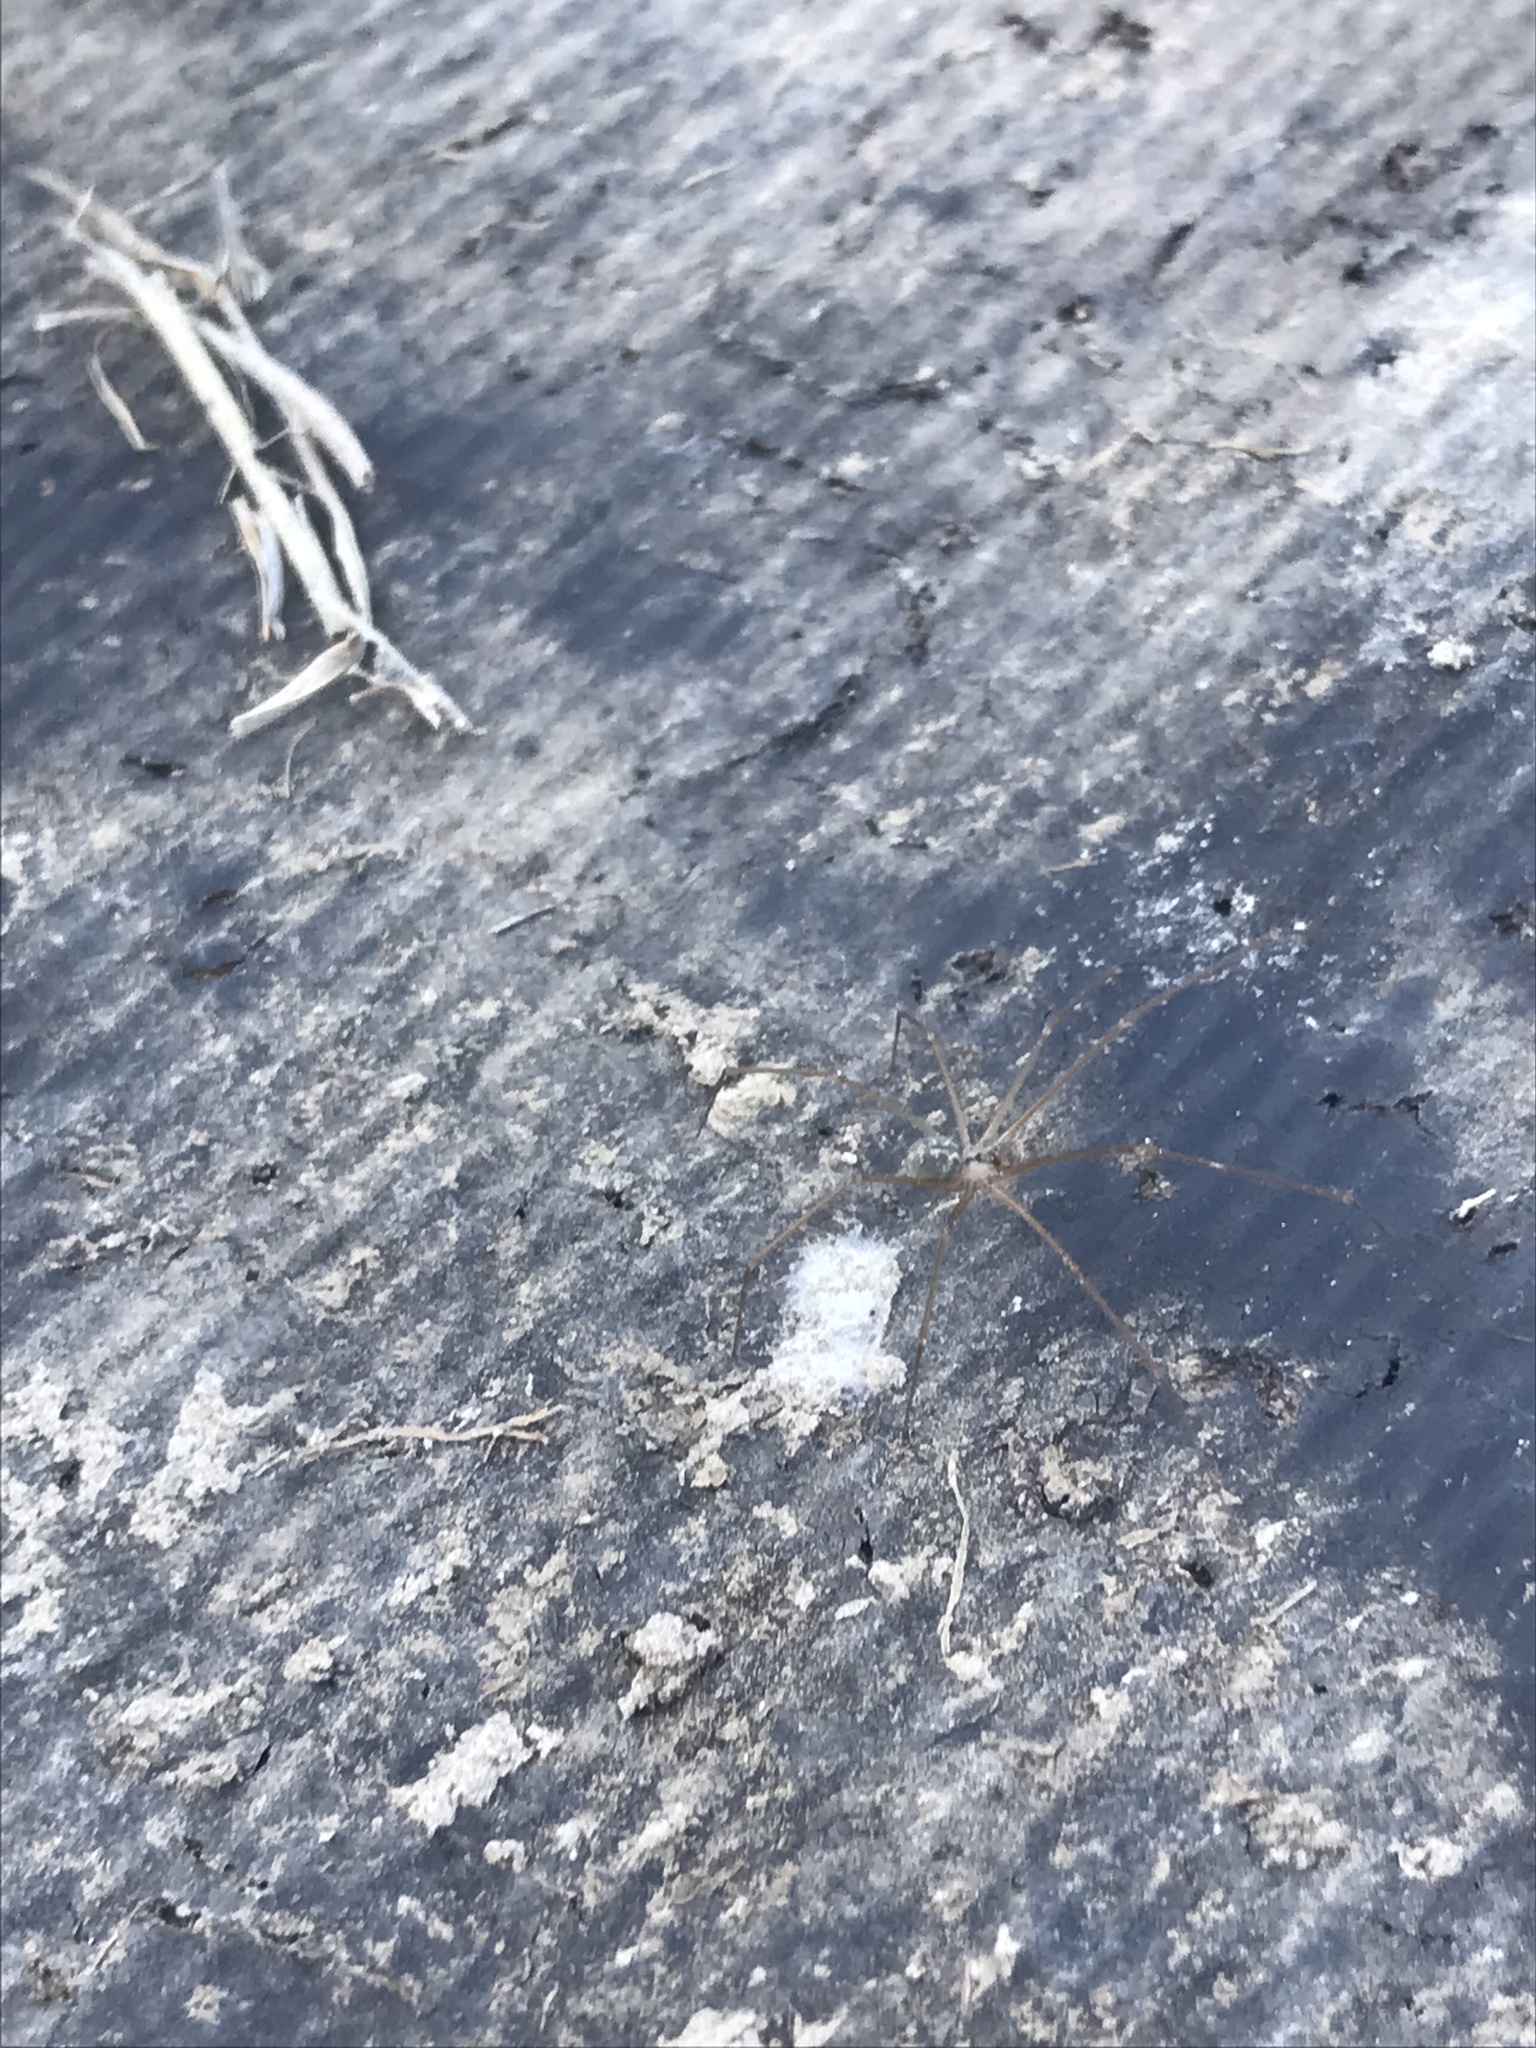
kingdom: Animalia
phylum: Arthropoda
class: Arachnida
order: Araneae
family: Pholcidae
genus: Psilochorus
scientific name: Psilochorus hesperus
